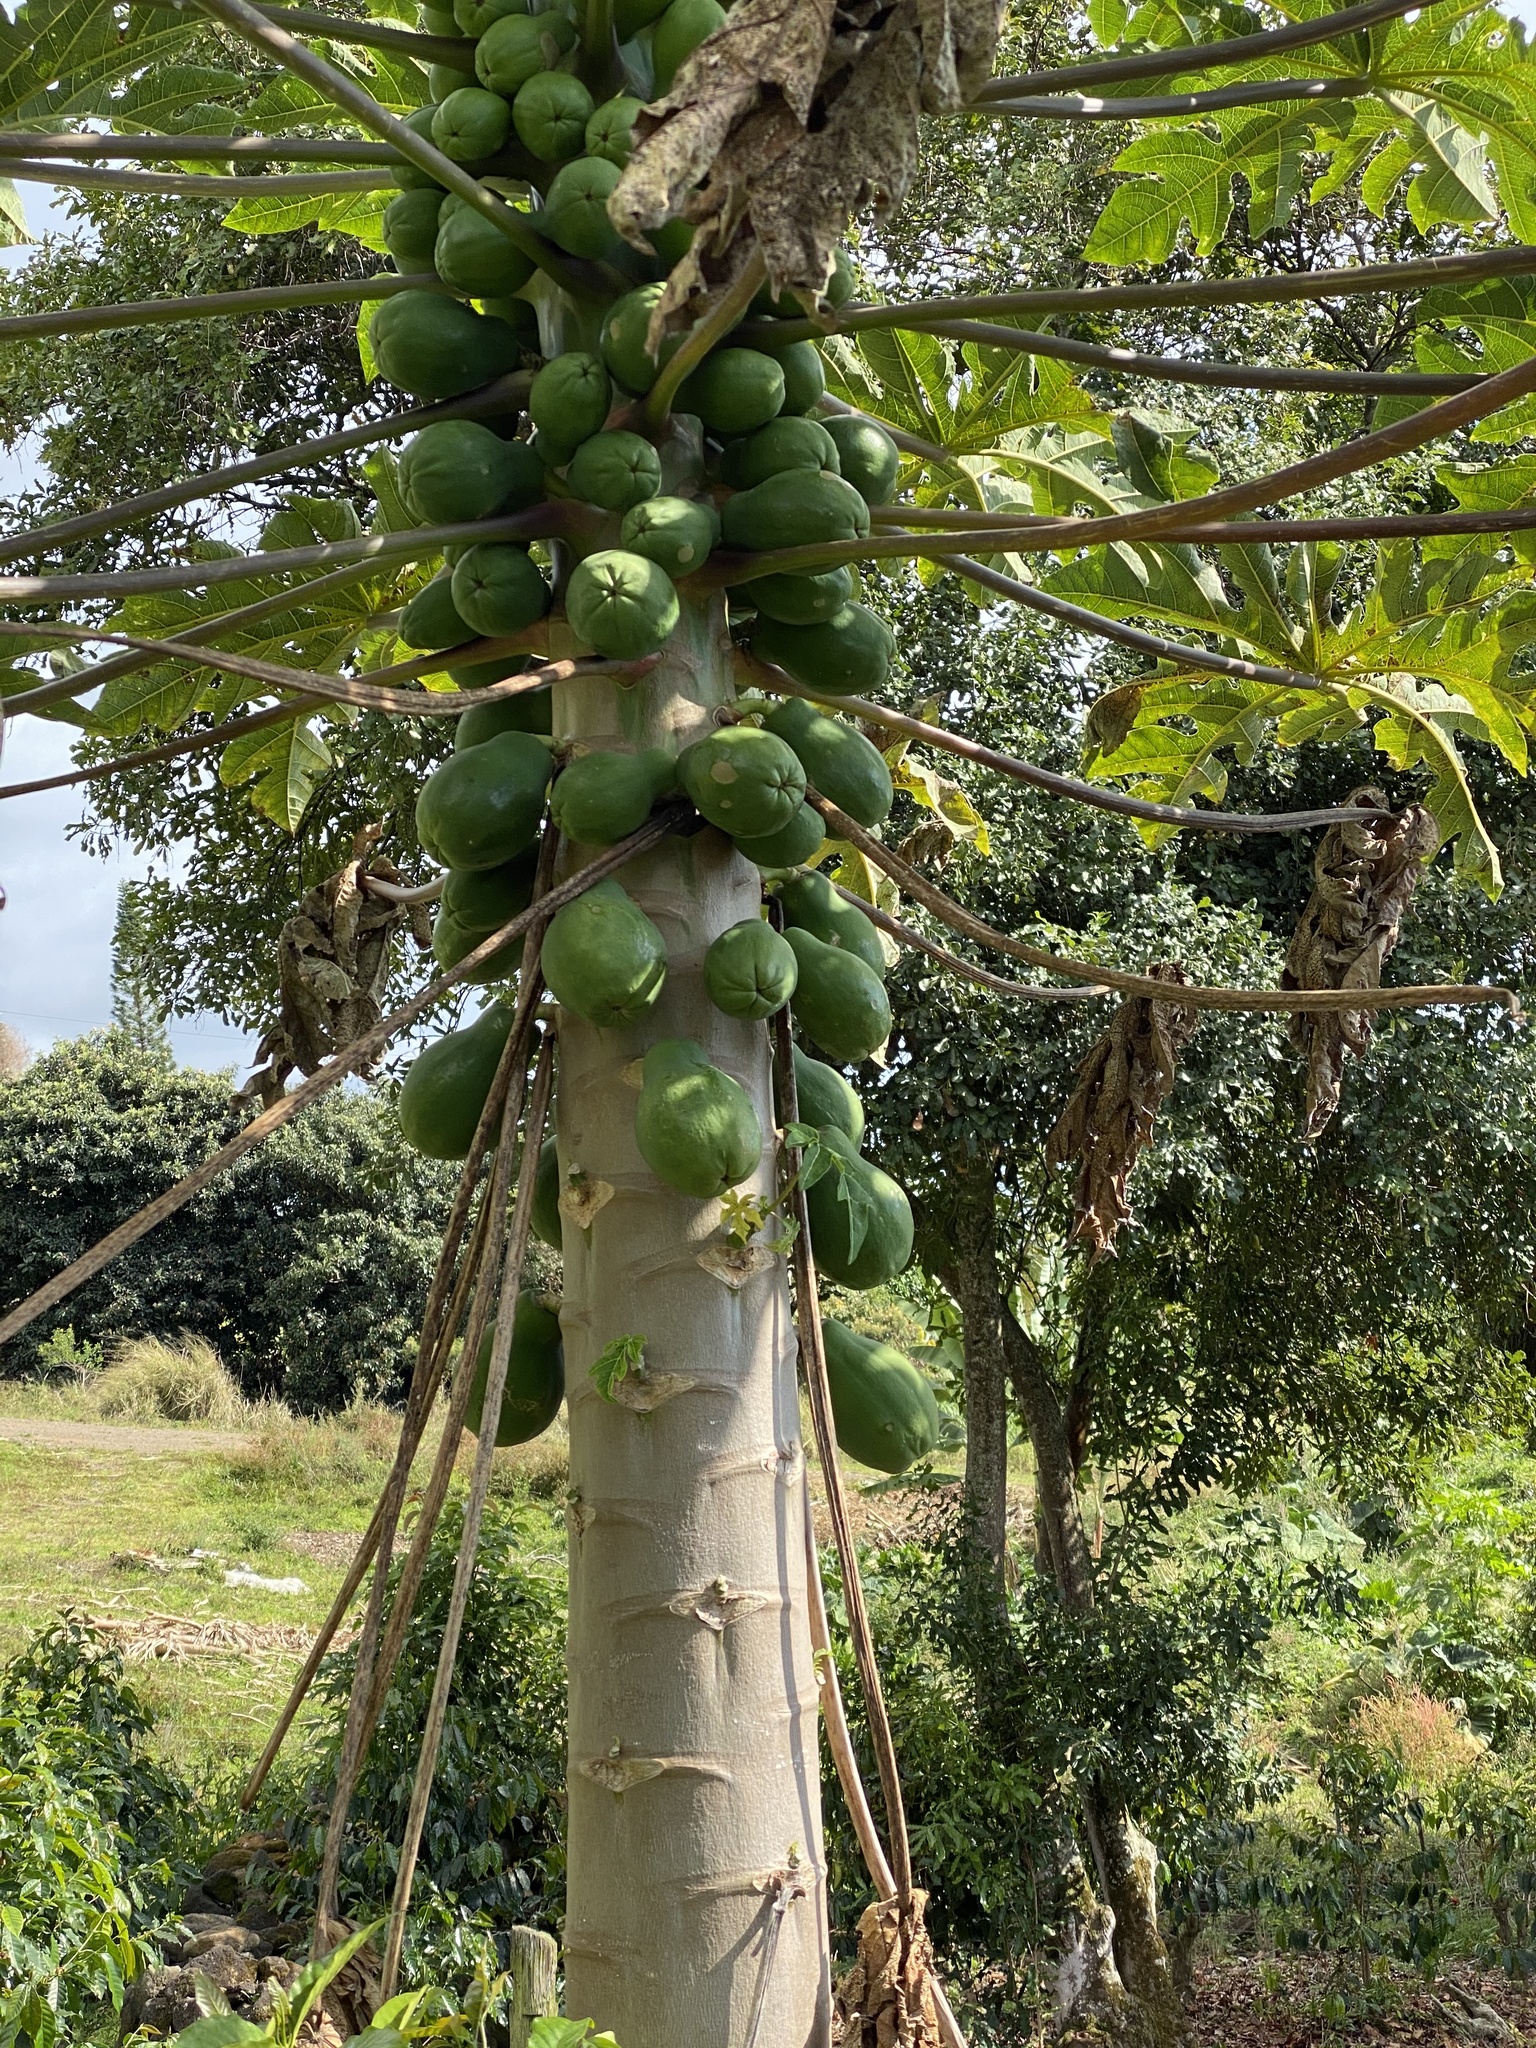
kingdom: Plantae
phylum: Tracheophyta
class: Magnoliopsida
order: Brassicales
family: Caricaceae
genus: Carica
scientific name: Carica papaya
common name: Papaya
